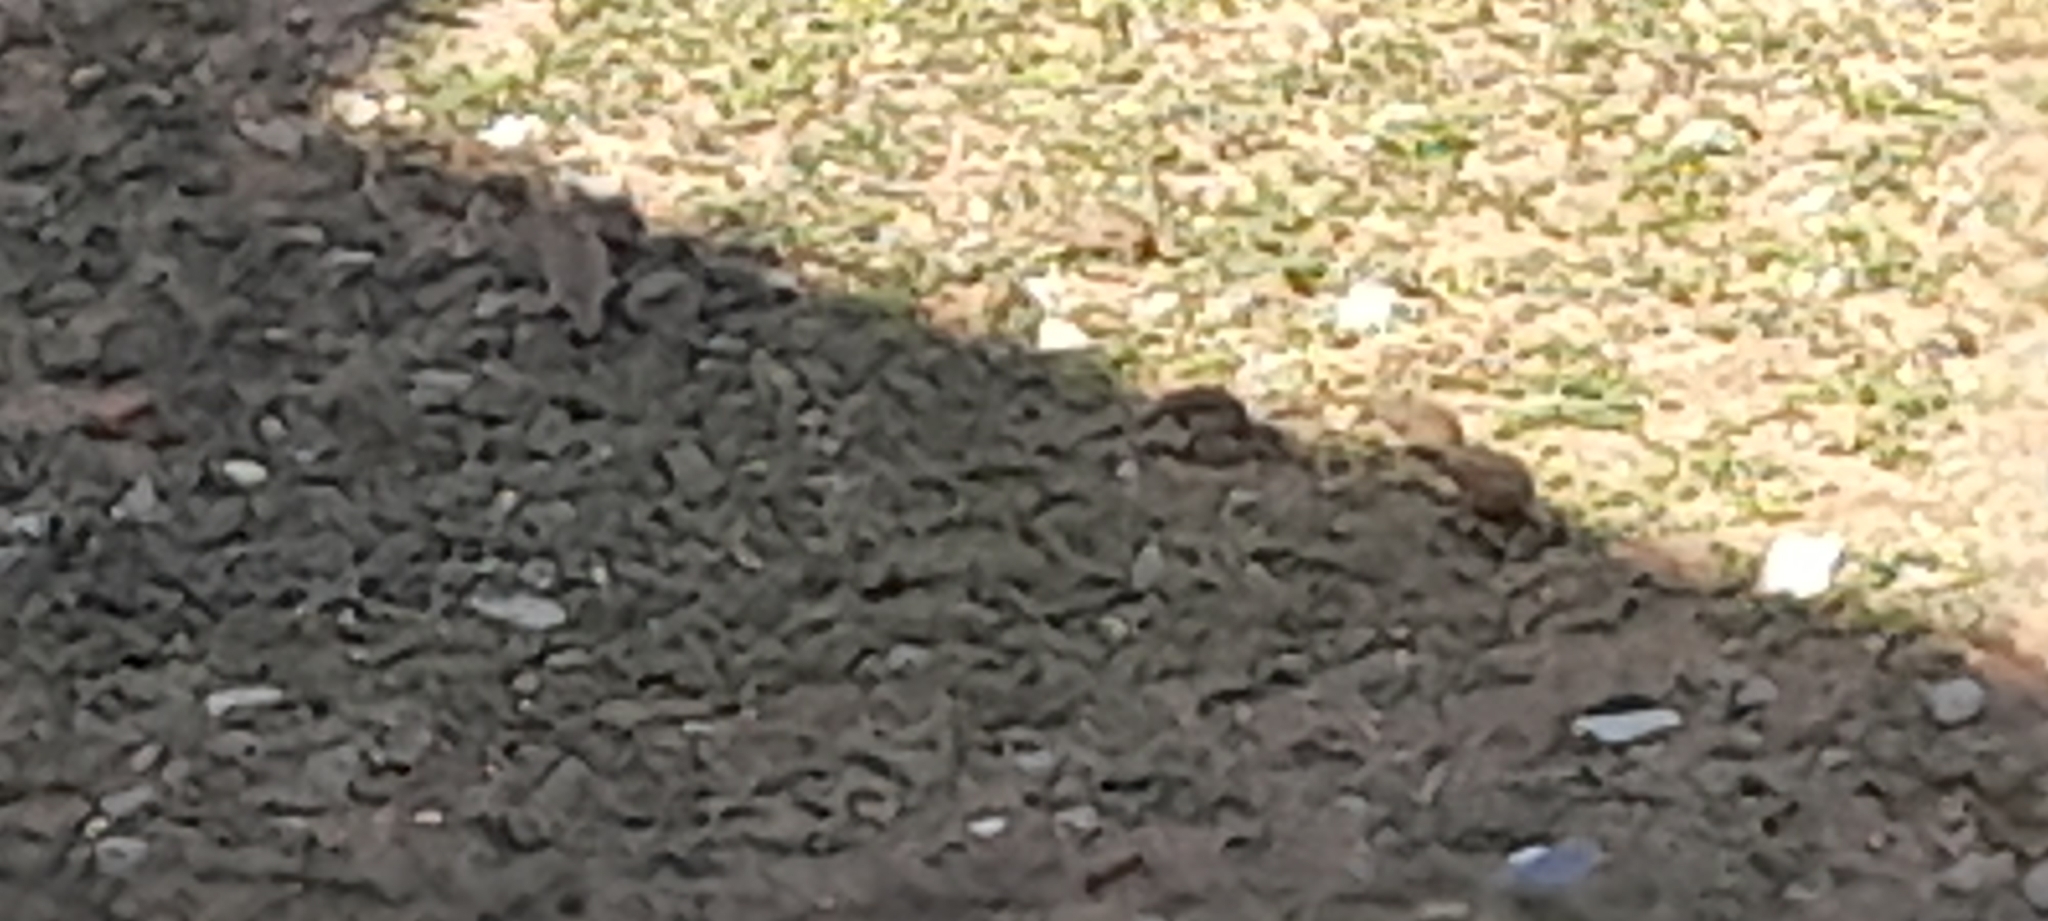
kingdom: Animalia
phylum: Chordata
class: Aves
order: Galliformes
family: Phasianidae
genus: Ortygornis
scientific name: Ortygornis pondicerianus
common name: Grey francolin
